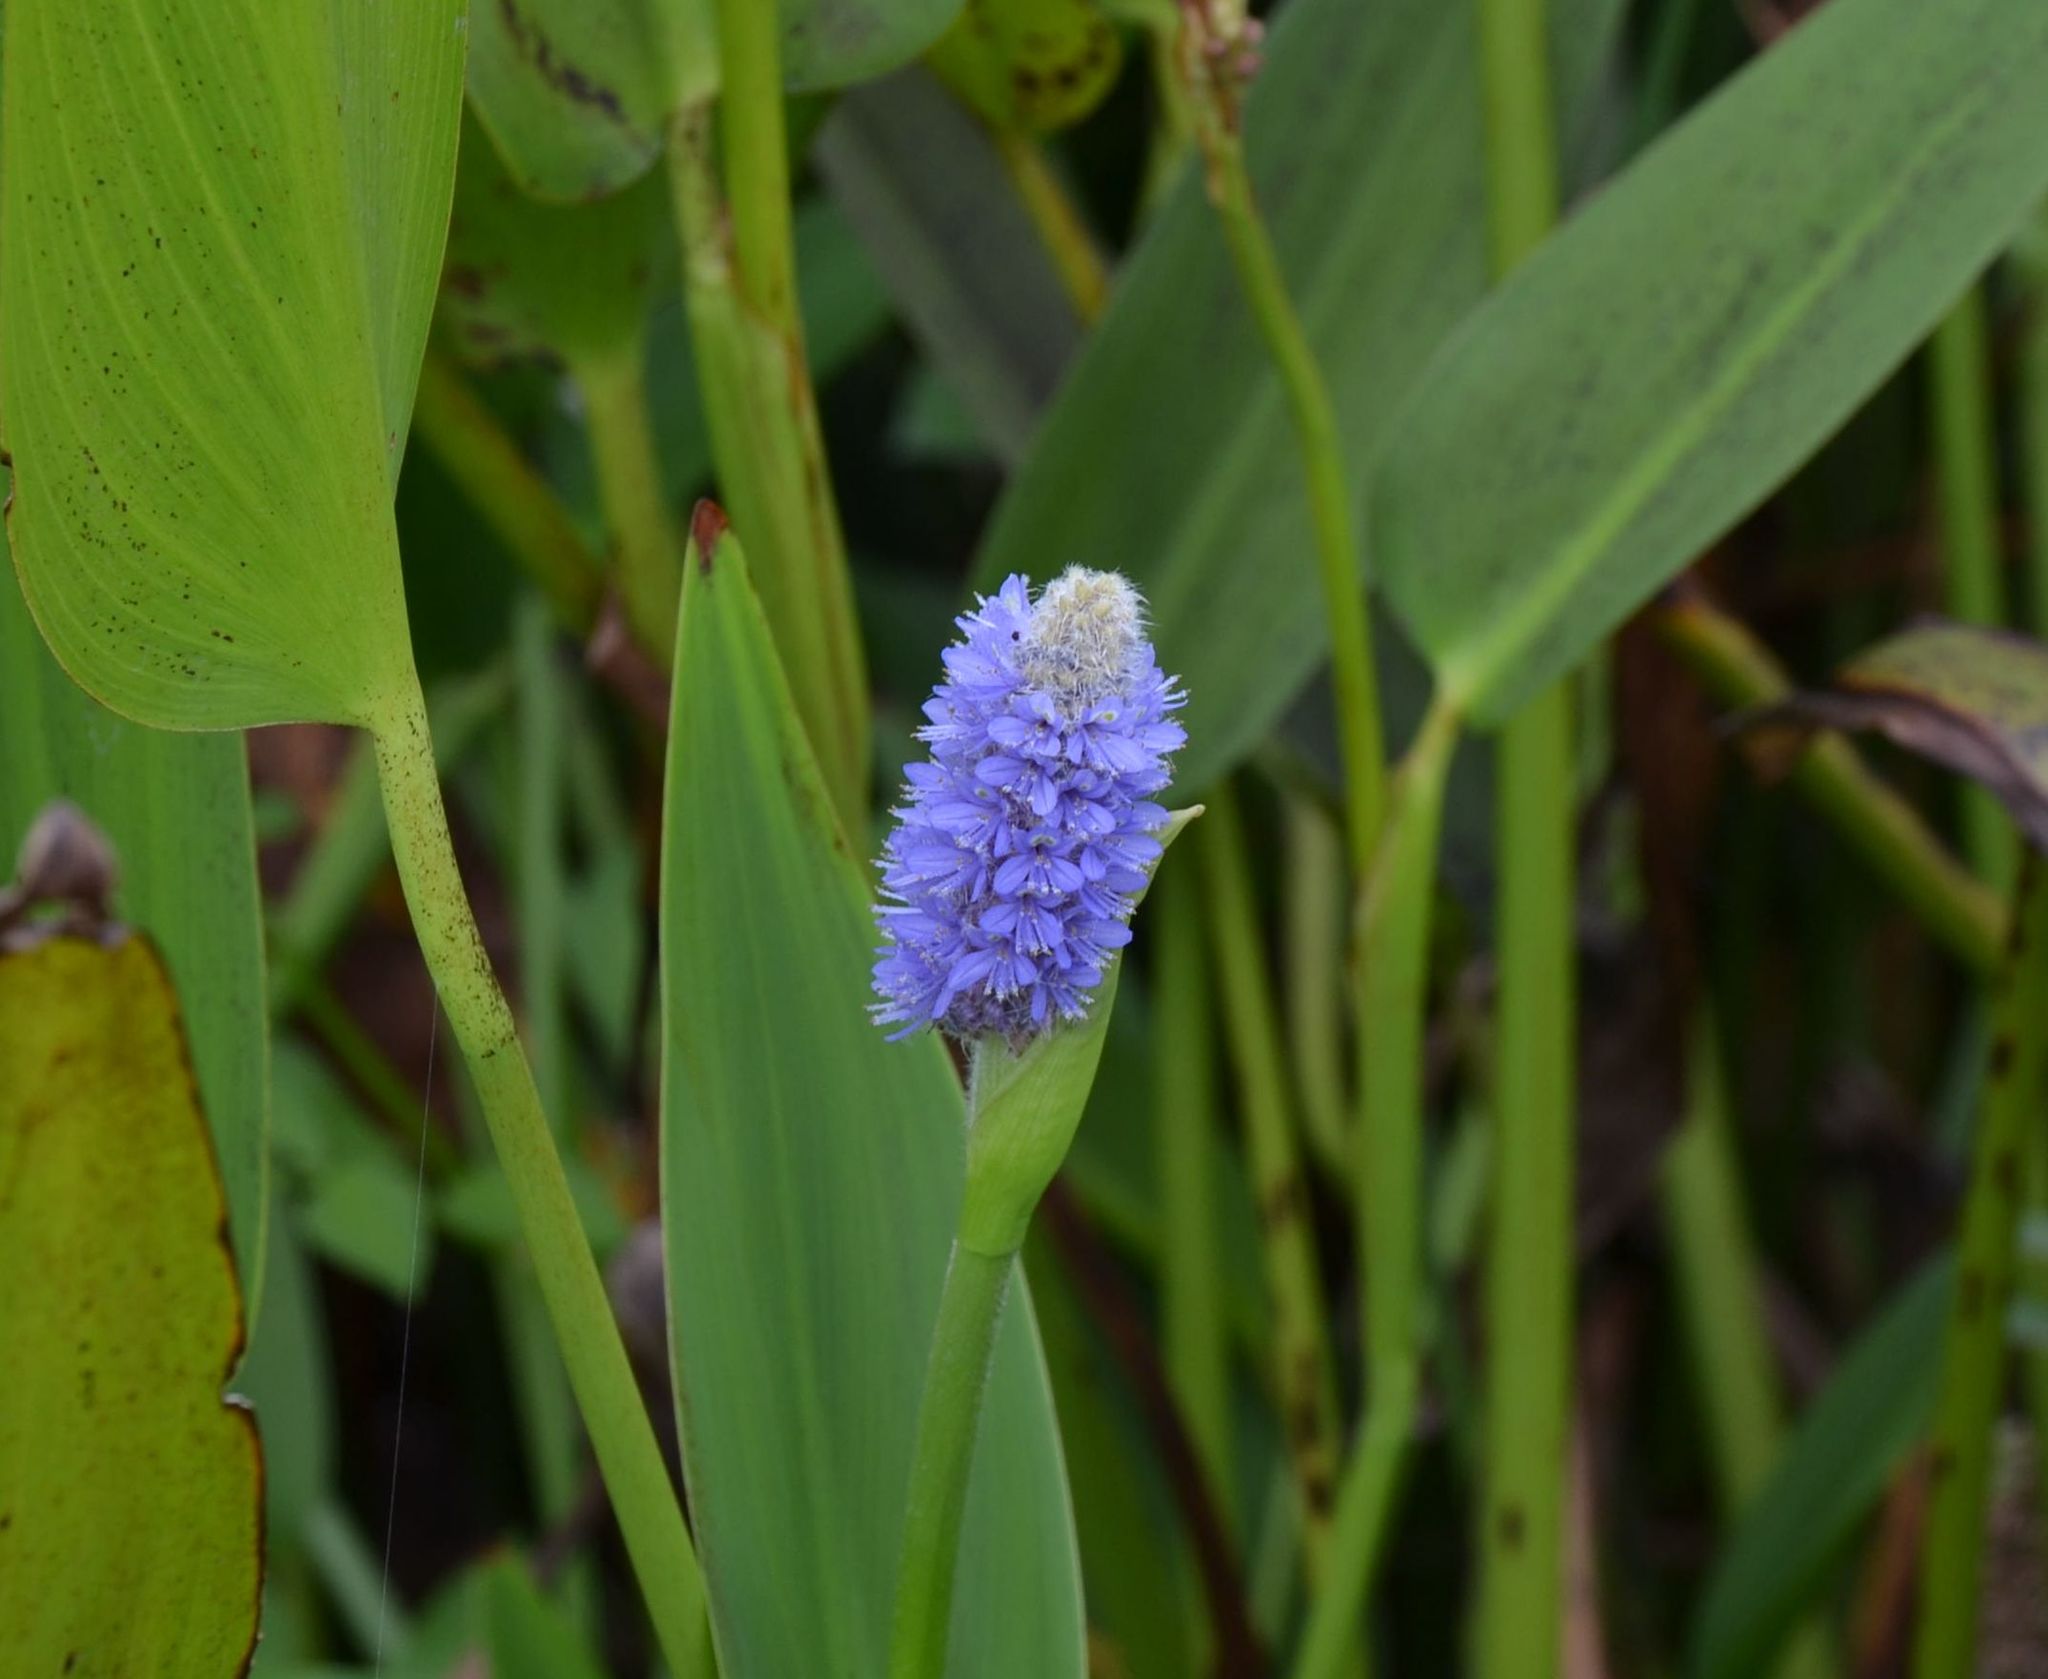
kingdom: Plantae
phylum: Tracheophyta
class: Liliopsida
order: Commelinales
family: Pontederiaceae
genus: Pontederia
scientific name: Pontederia cordata
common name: Pickerelweed
